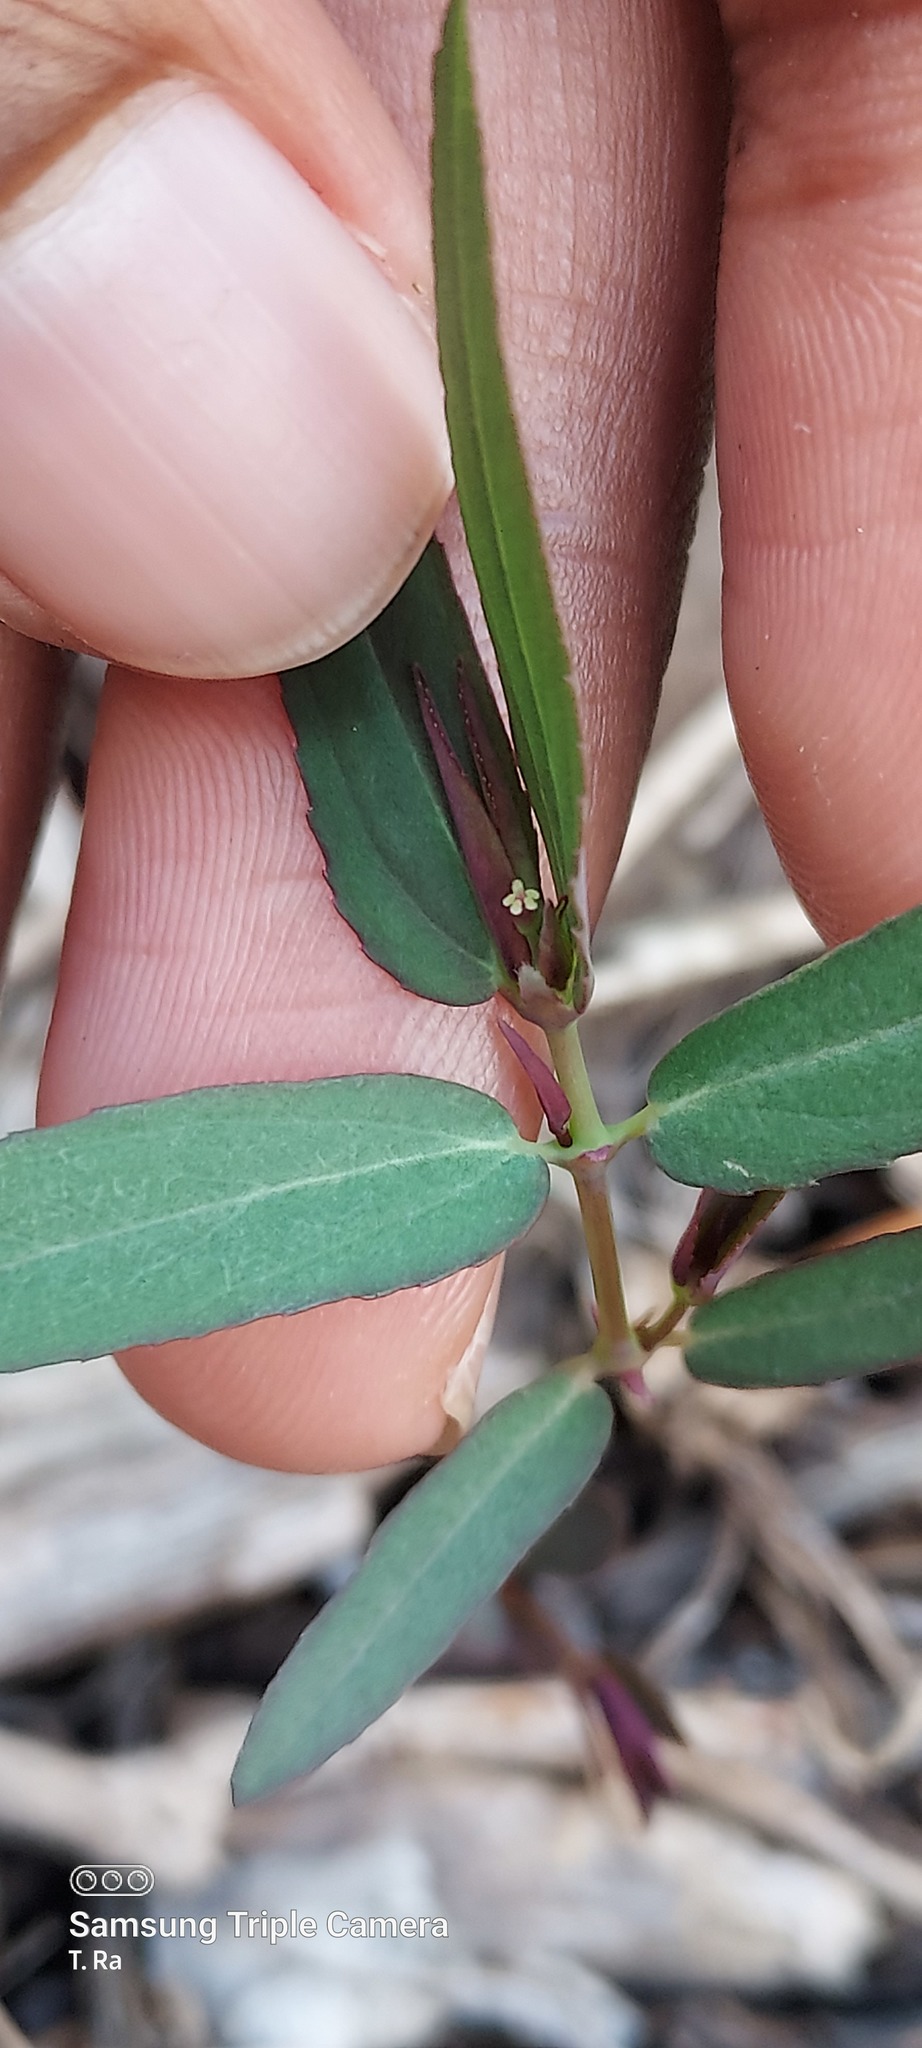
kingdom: Plantae
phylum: Tracheophyta
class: Magnoliopsida
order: Malpighiales
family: Euphorbiaceae
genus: Euphorbia
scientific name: Euphorbia hypericifolia
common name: Graceful sandmat
